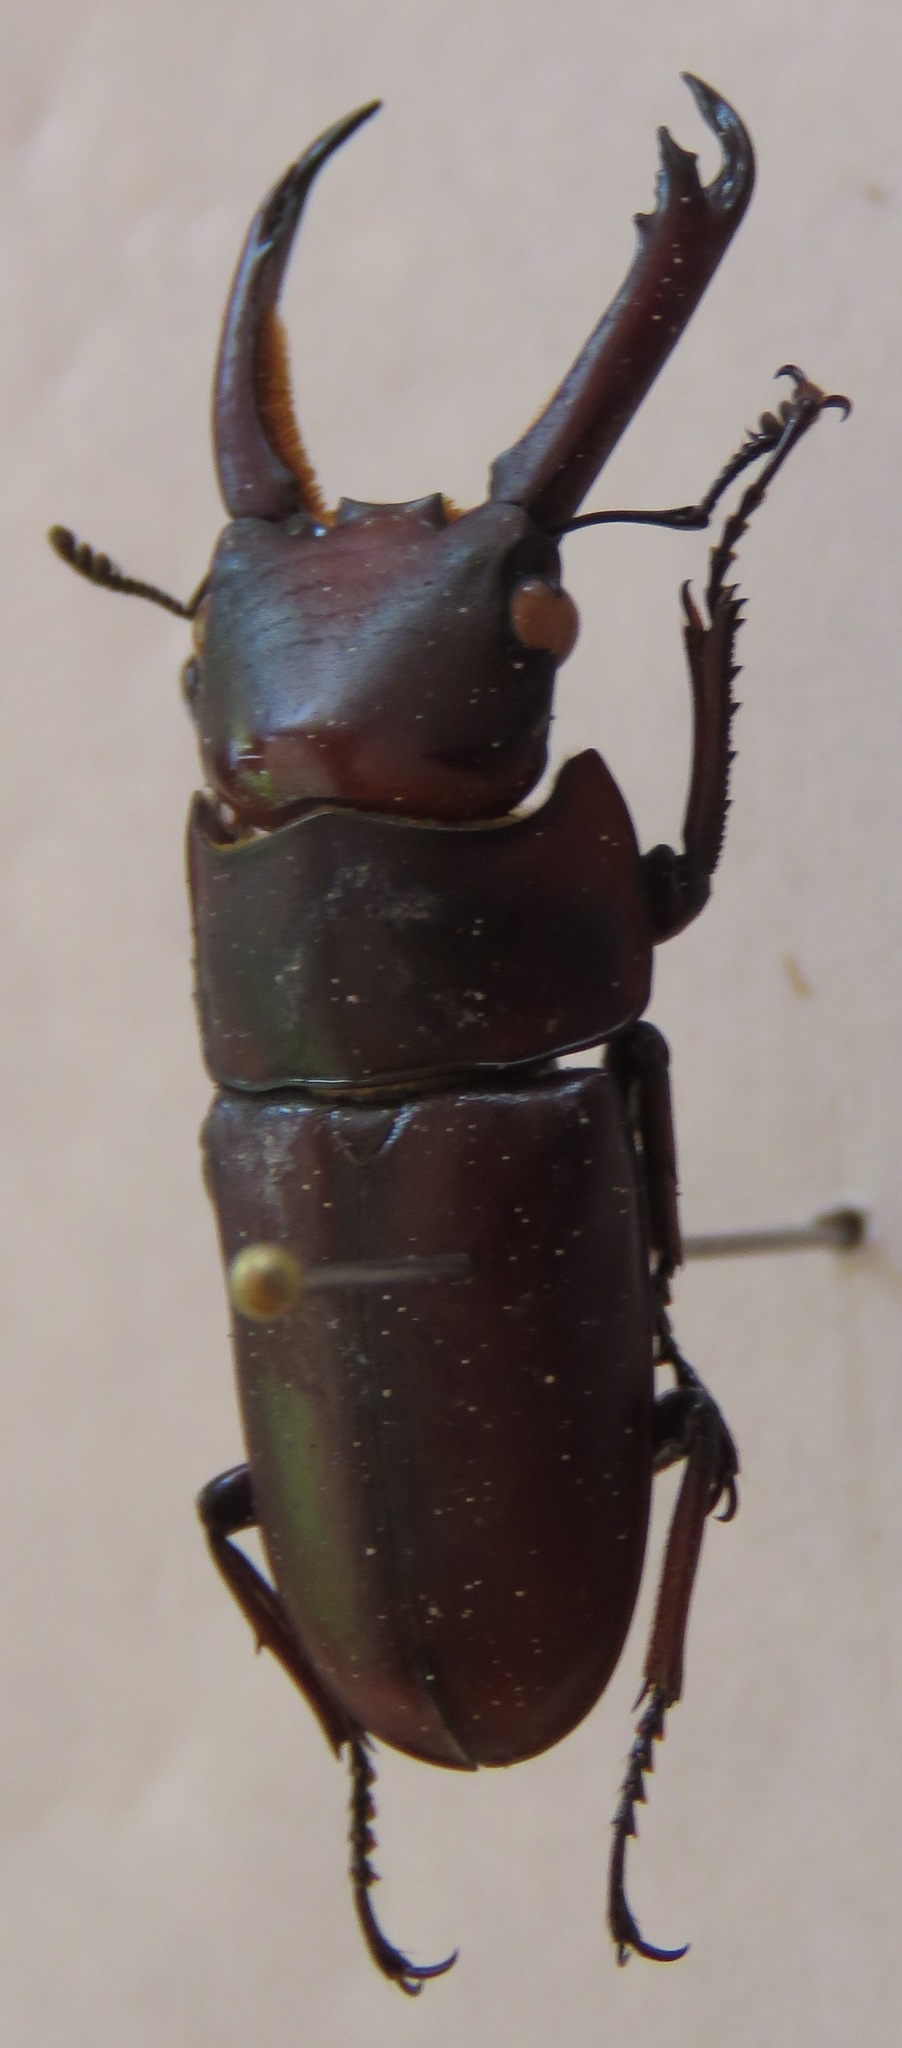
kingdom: Animalia
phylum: Arthropoda
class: Insecta
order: Coleoptera
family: Lucanidae
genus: Falcicornis
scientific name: Falcicornis mellianus
